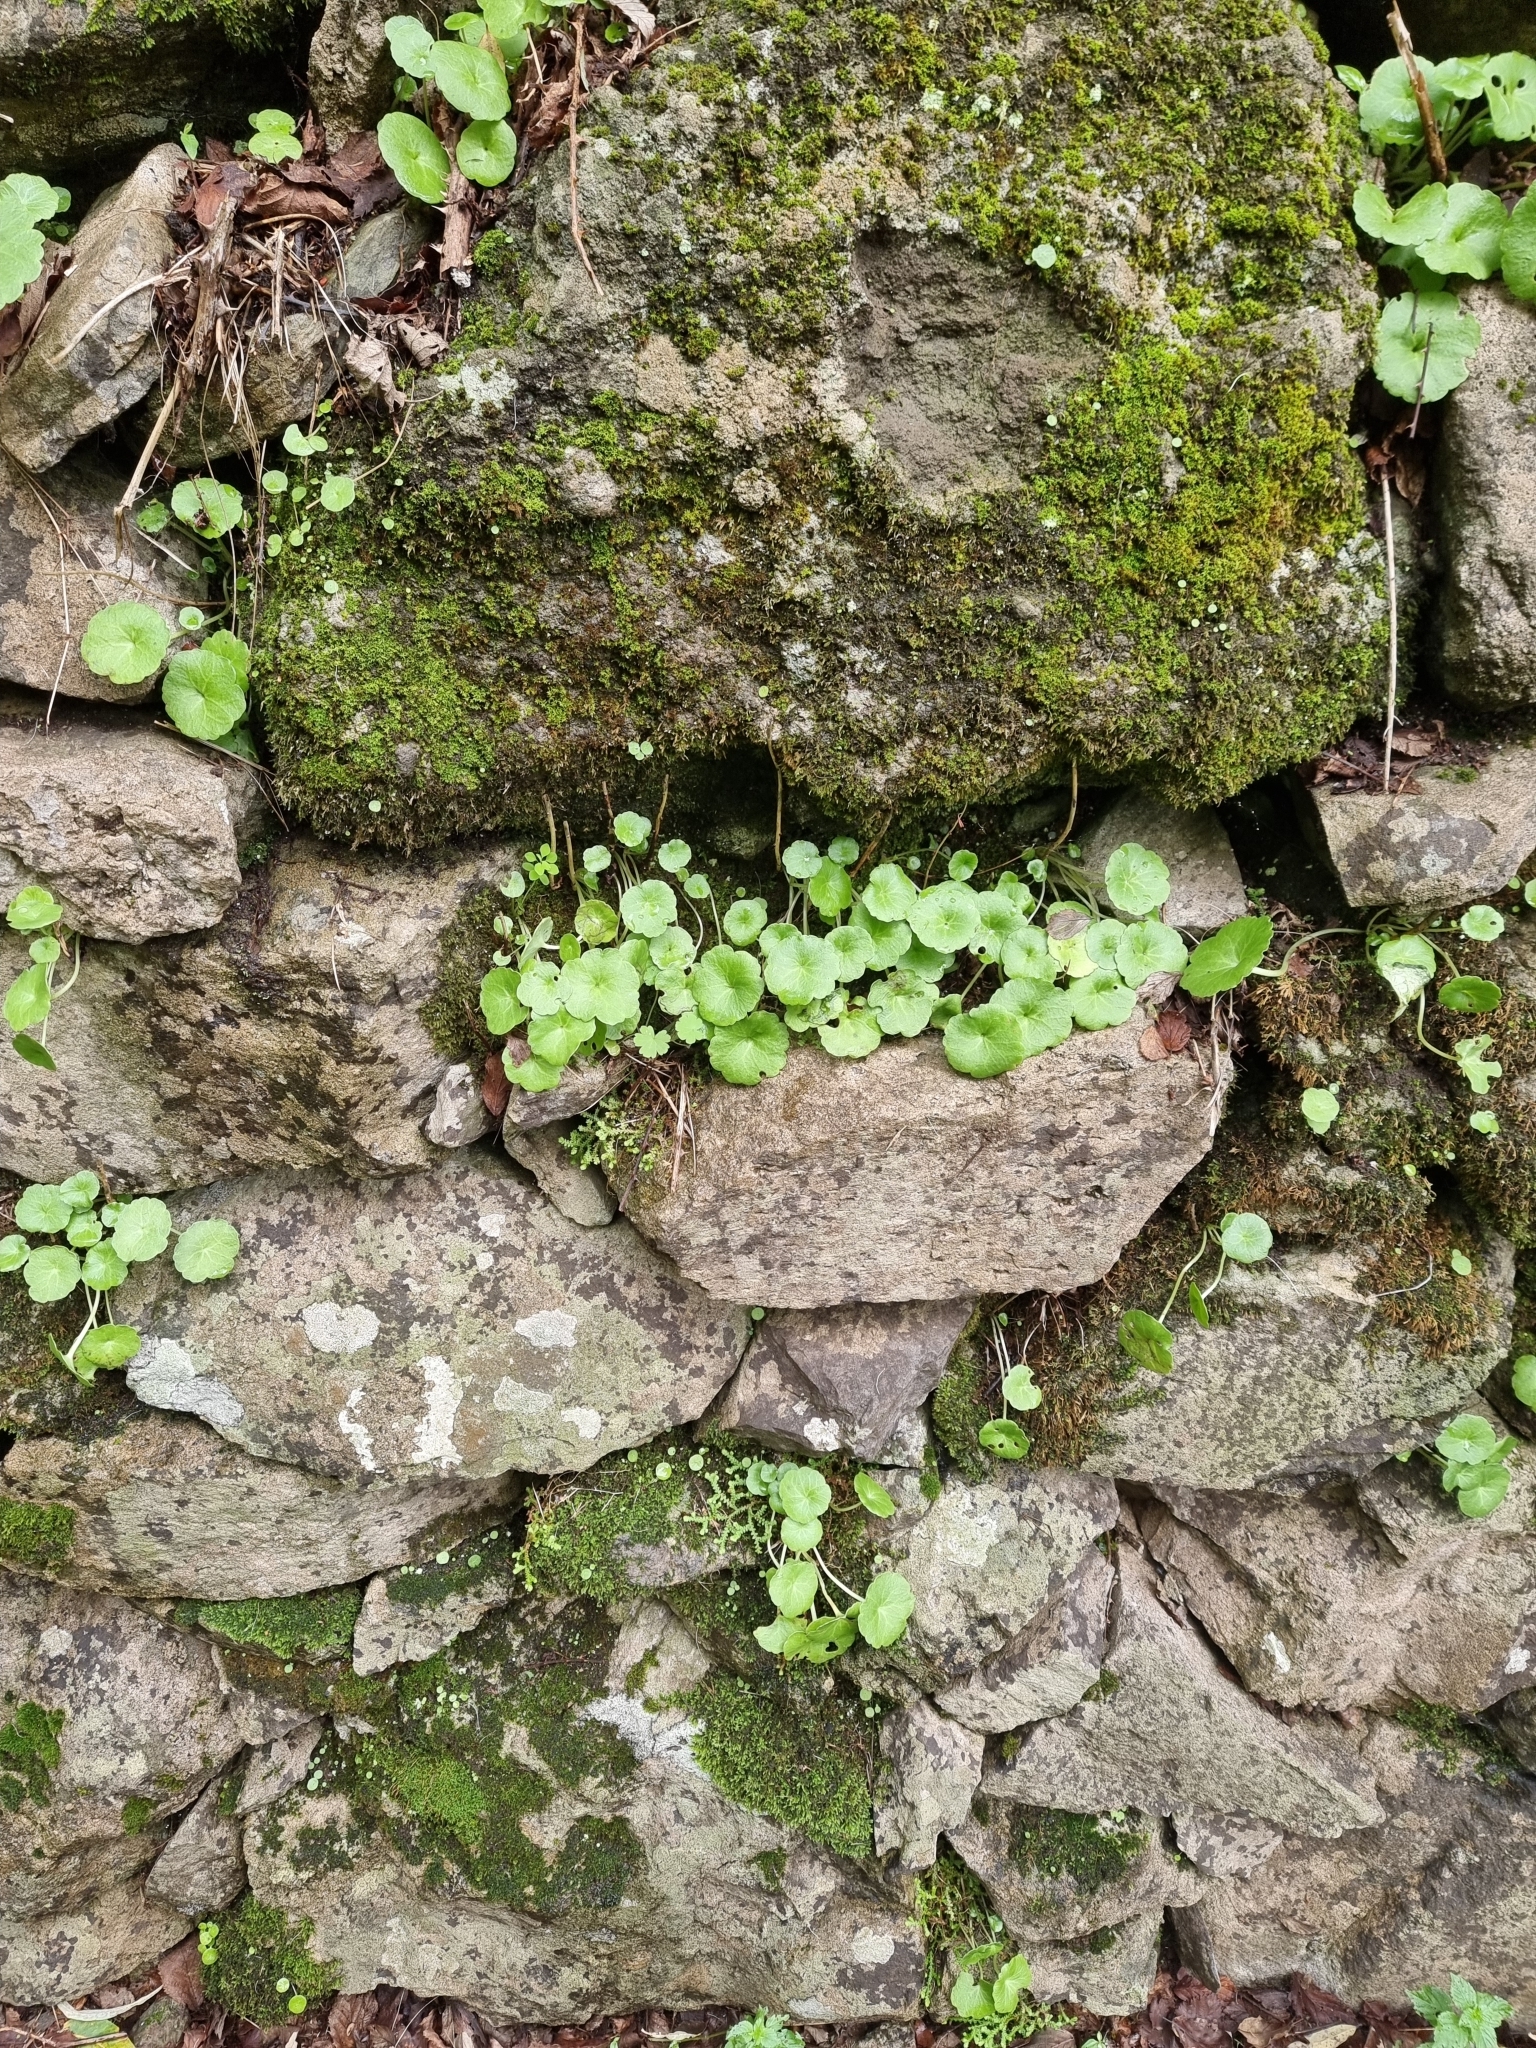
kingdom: Plantae
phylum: Tracheophyta
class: Magnoliopsida
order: Saxifragales
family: Crassulaceae
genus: Umbilicus
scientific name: Umbilicus rupestris
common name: Navelwort
